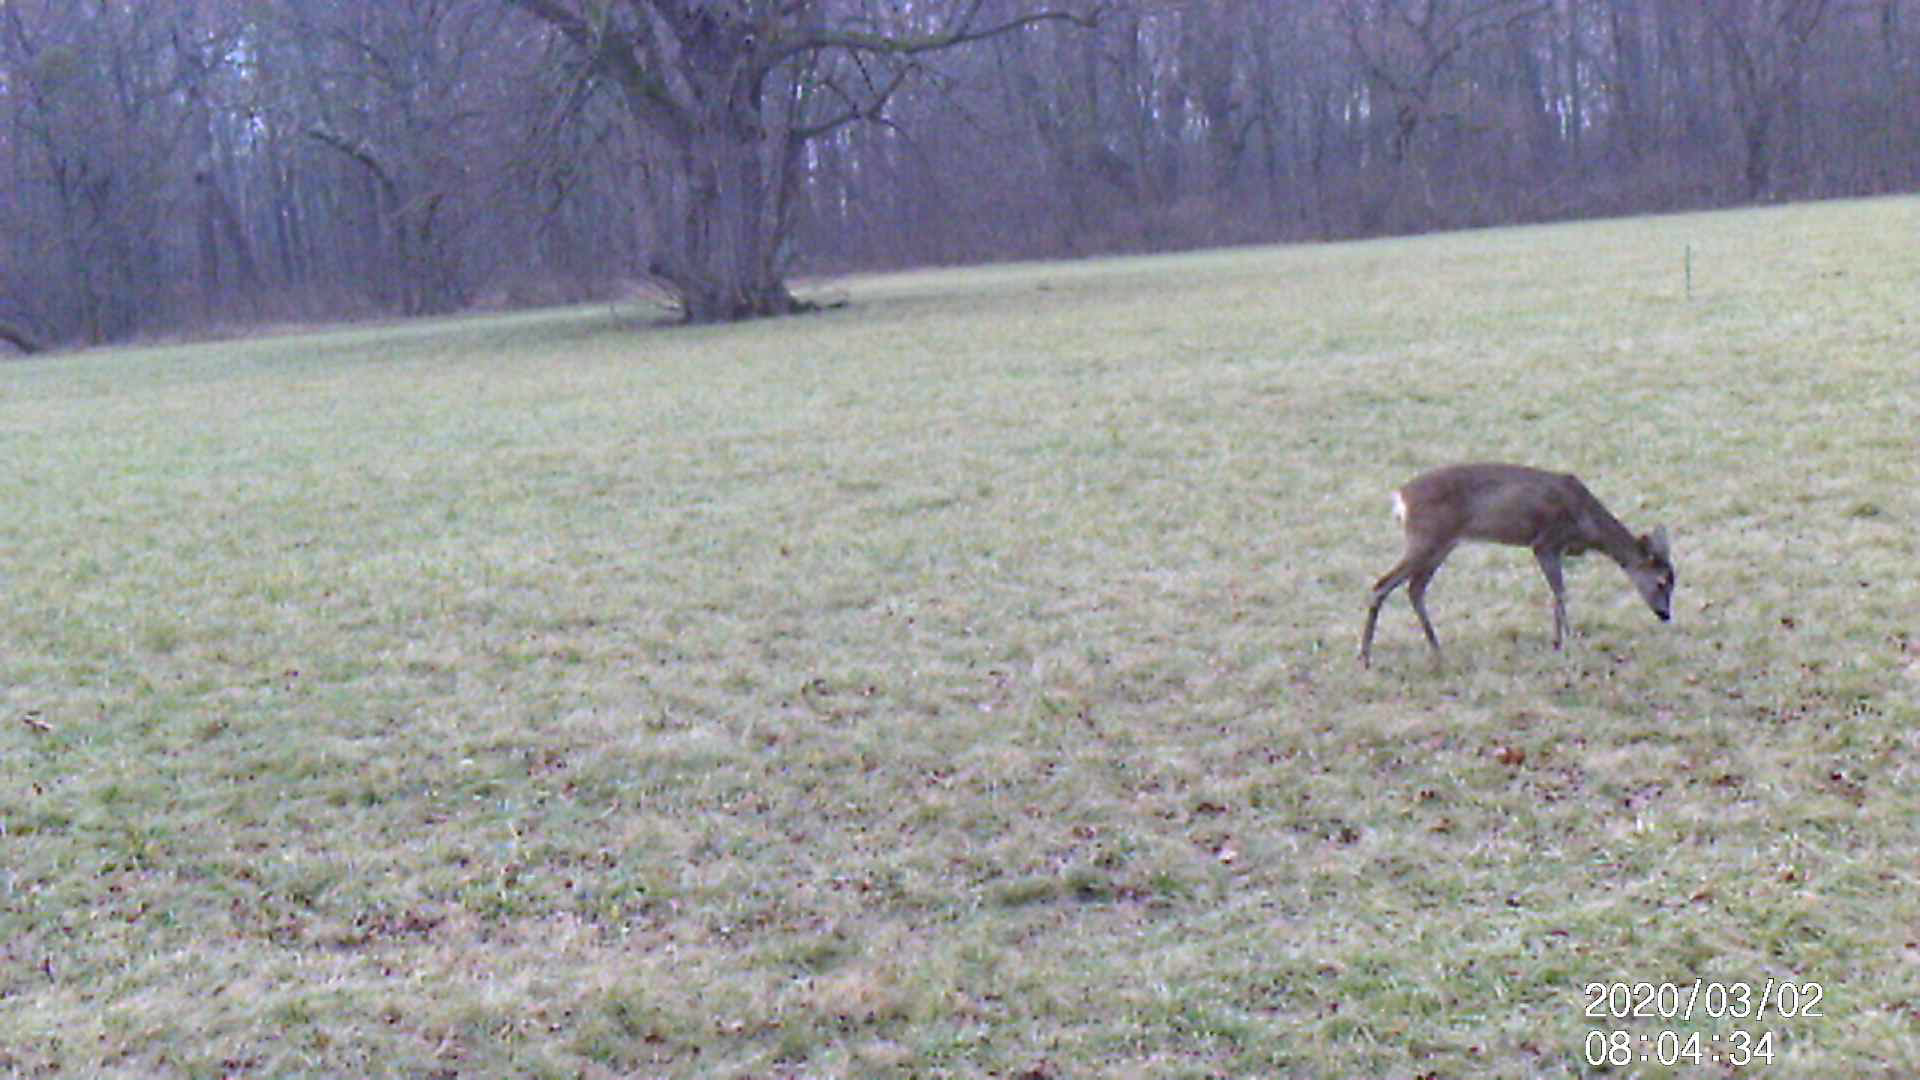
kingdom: Animalia
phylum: Chordata
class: Mammalia
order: Artiodactyla
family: Cervidae
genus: Capreolus
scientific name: Capreolus capreolus
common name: Western roe deer
